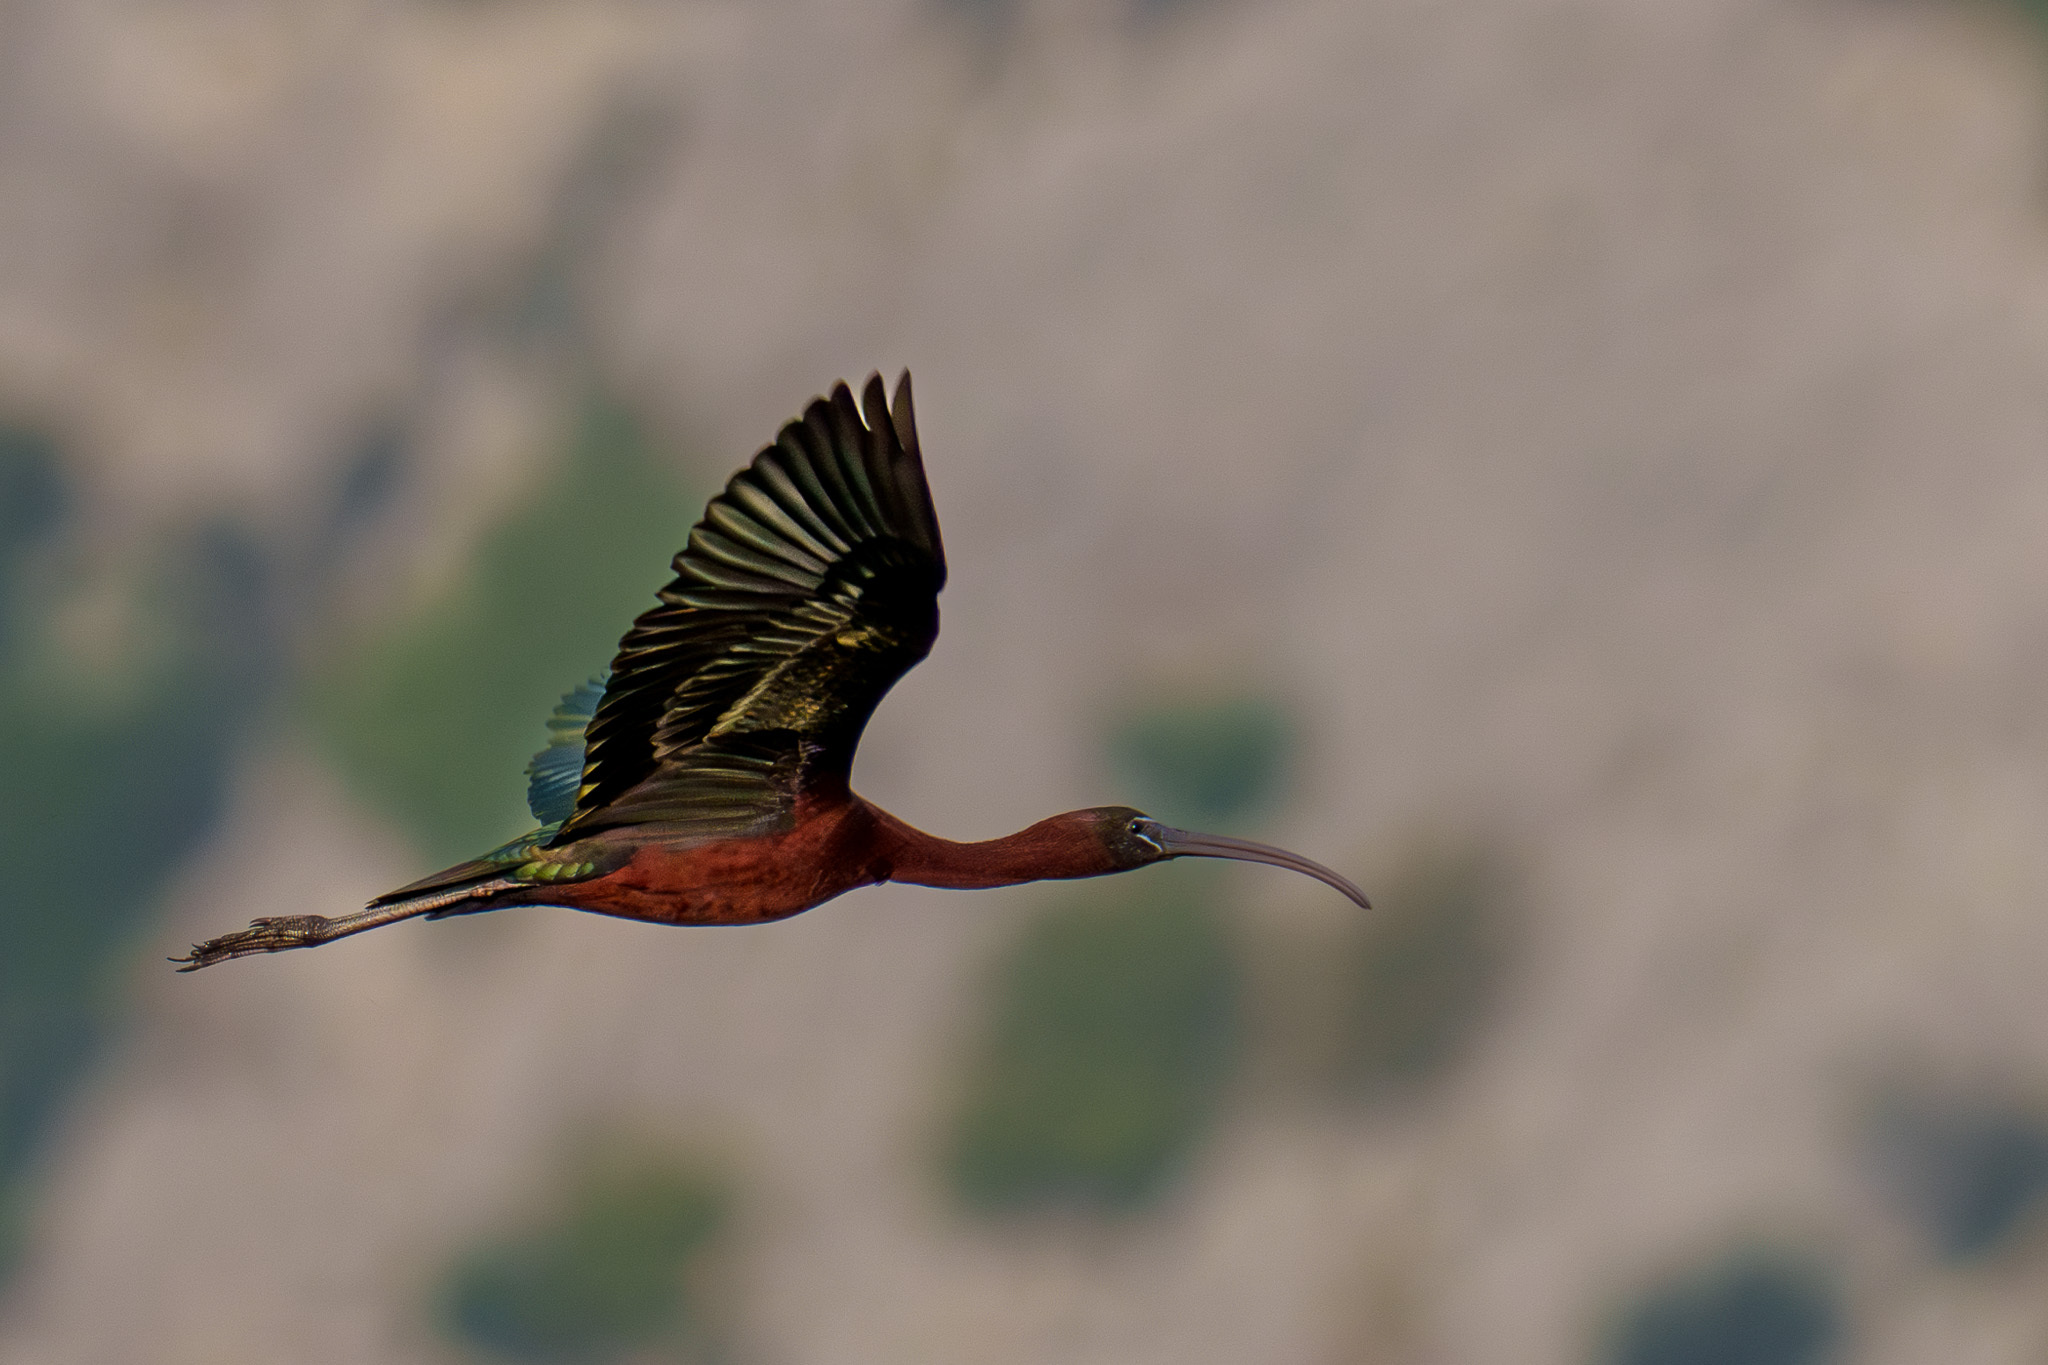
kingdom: Animalia
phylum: Chordata
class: Aves
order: Pelecaniformes
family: Threskiornithidae
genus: Plegadis
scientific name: Plegadis falcinellus
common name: Glossy ibis
